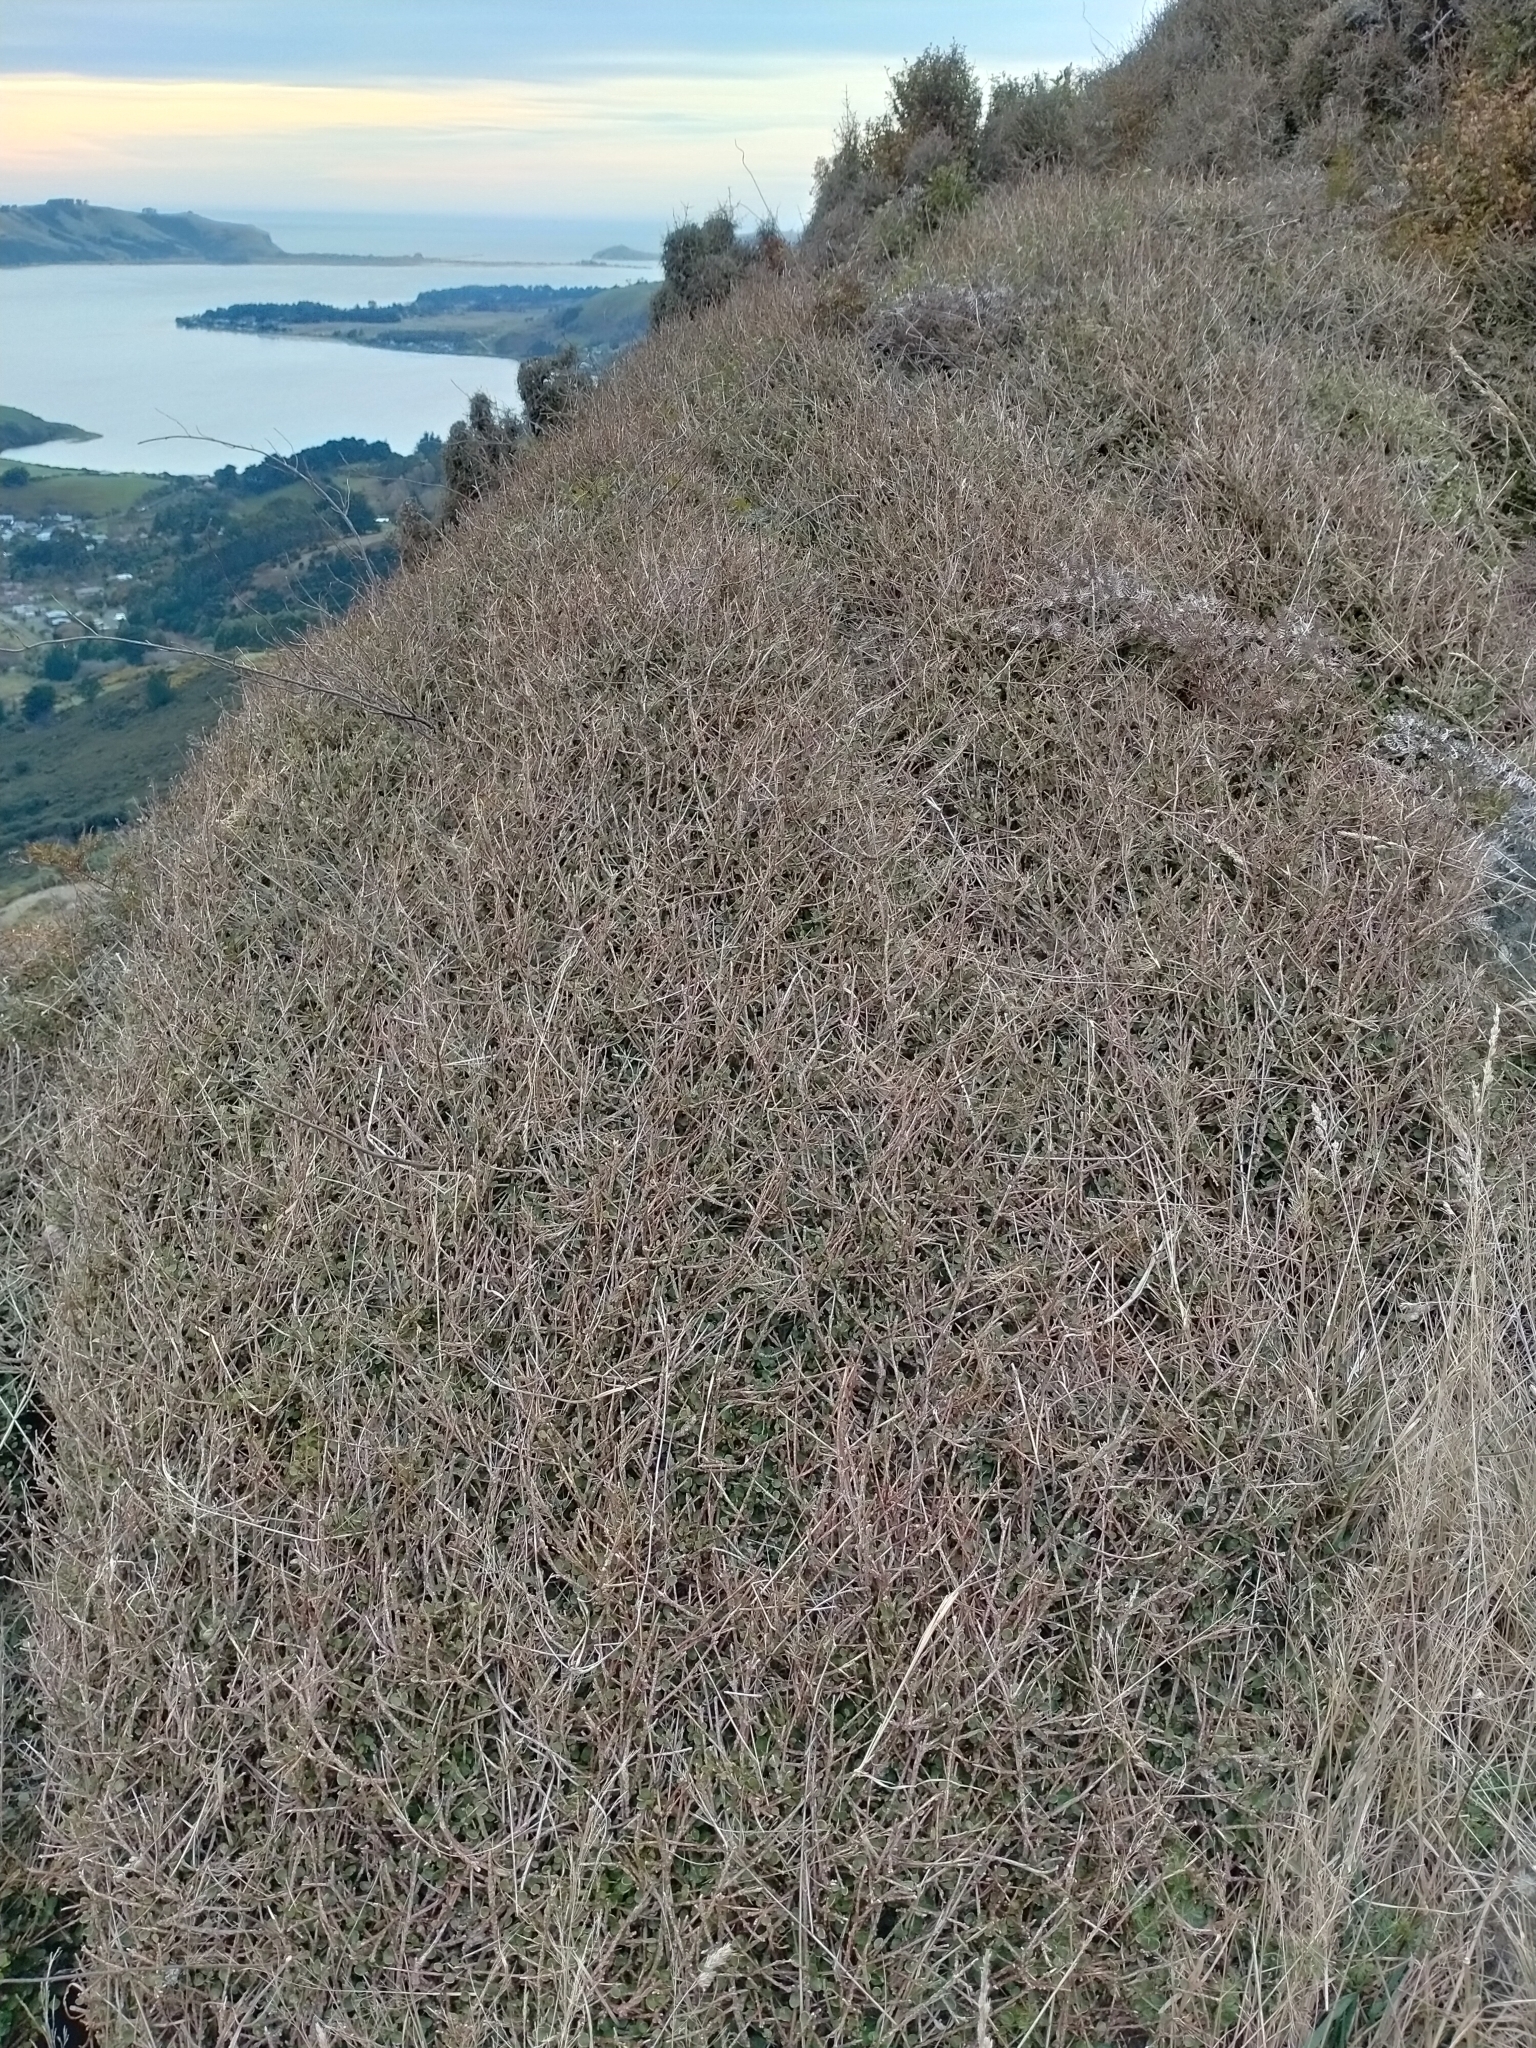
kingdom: Plantae
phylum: Tracheophyta
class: Magnoliopsida
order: Sapindales
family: Rutaceae
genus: Melicope
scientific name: Melicope simplex
